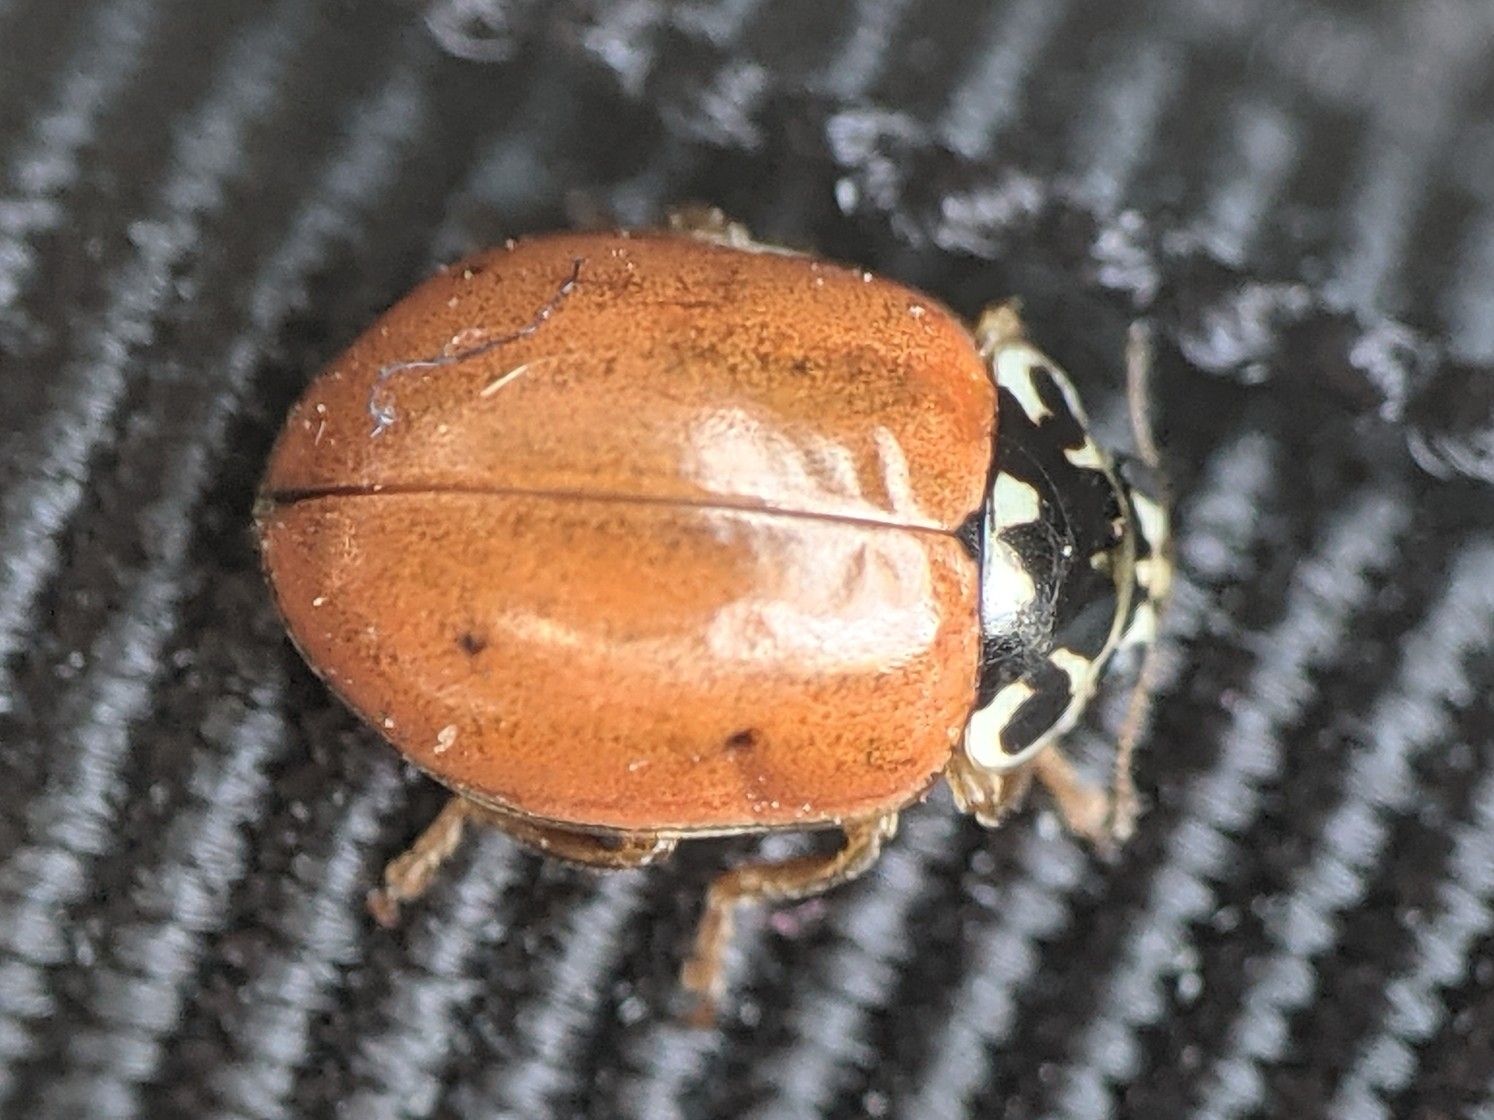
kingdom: Animalia
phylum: Arthropoda
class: Insecta
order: Coleoptera
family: Coccinellidae
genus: Mulsantina
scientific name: Mulsantina picta
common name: Painted ladybird
